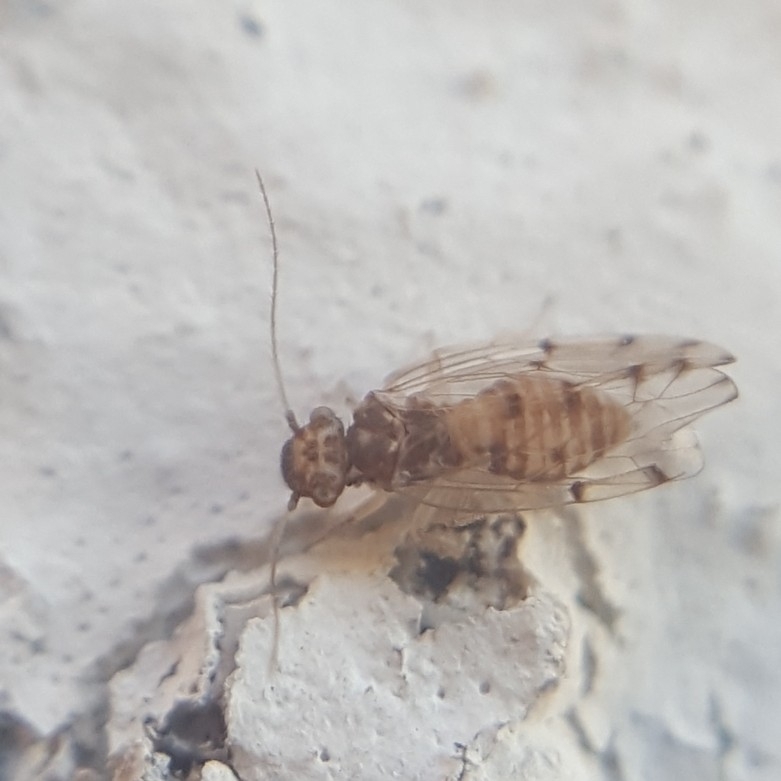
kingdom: Animalia
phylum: Arthropoda
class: Insecta
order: Psocodea
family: Ectopsocidae
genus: Ectopsocus
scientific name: Ectopsocus petersi
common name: Medium-sized bark louse
